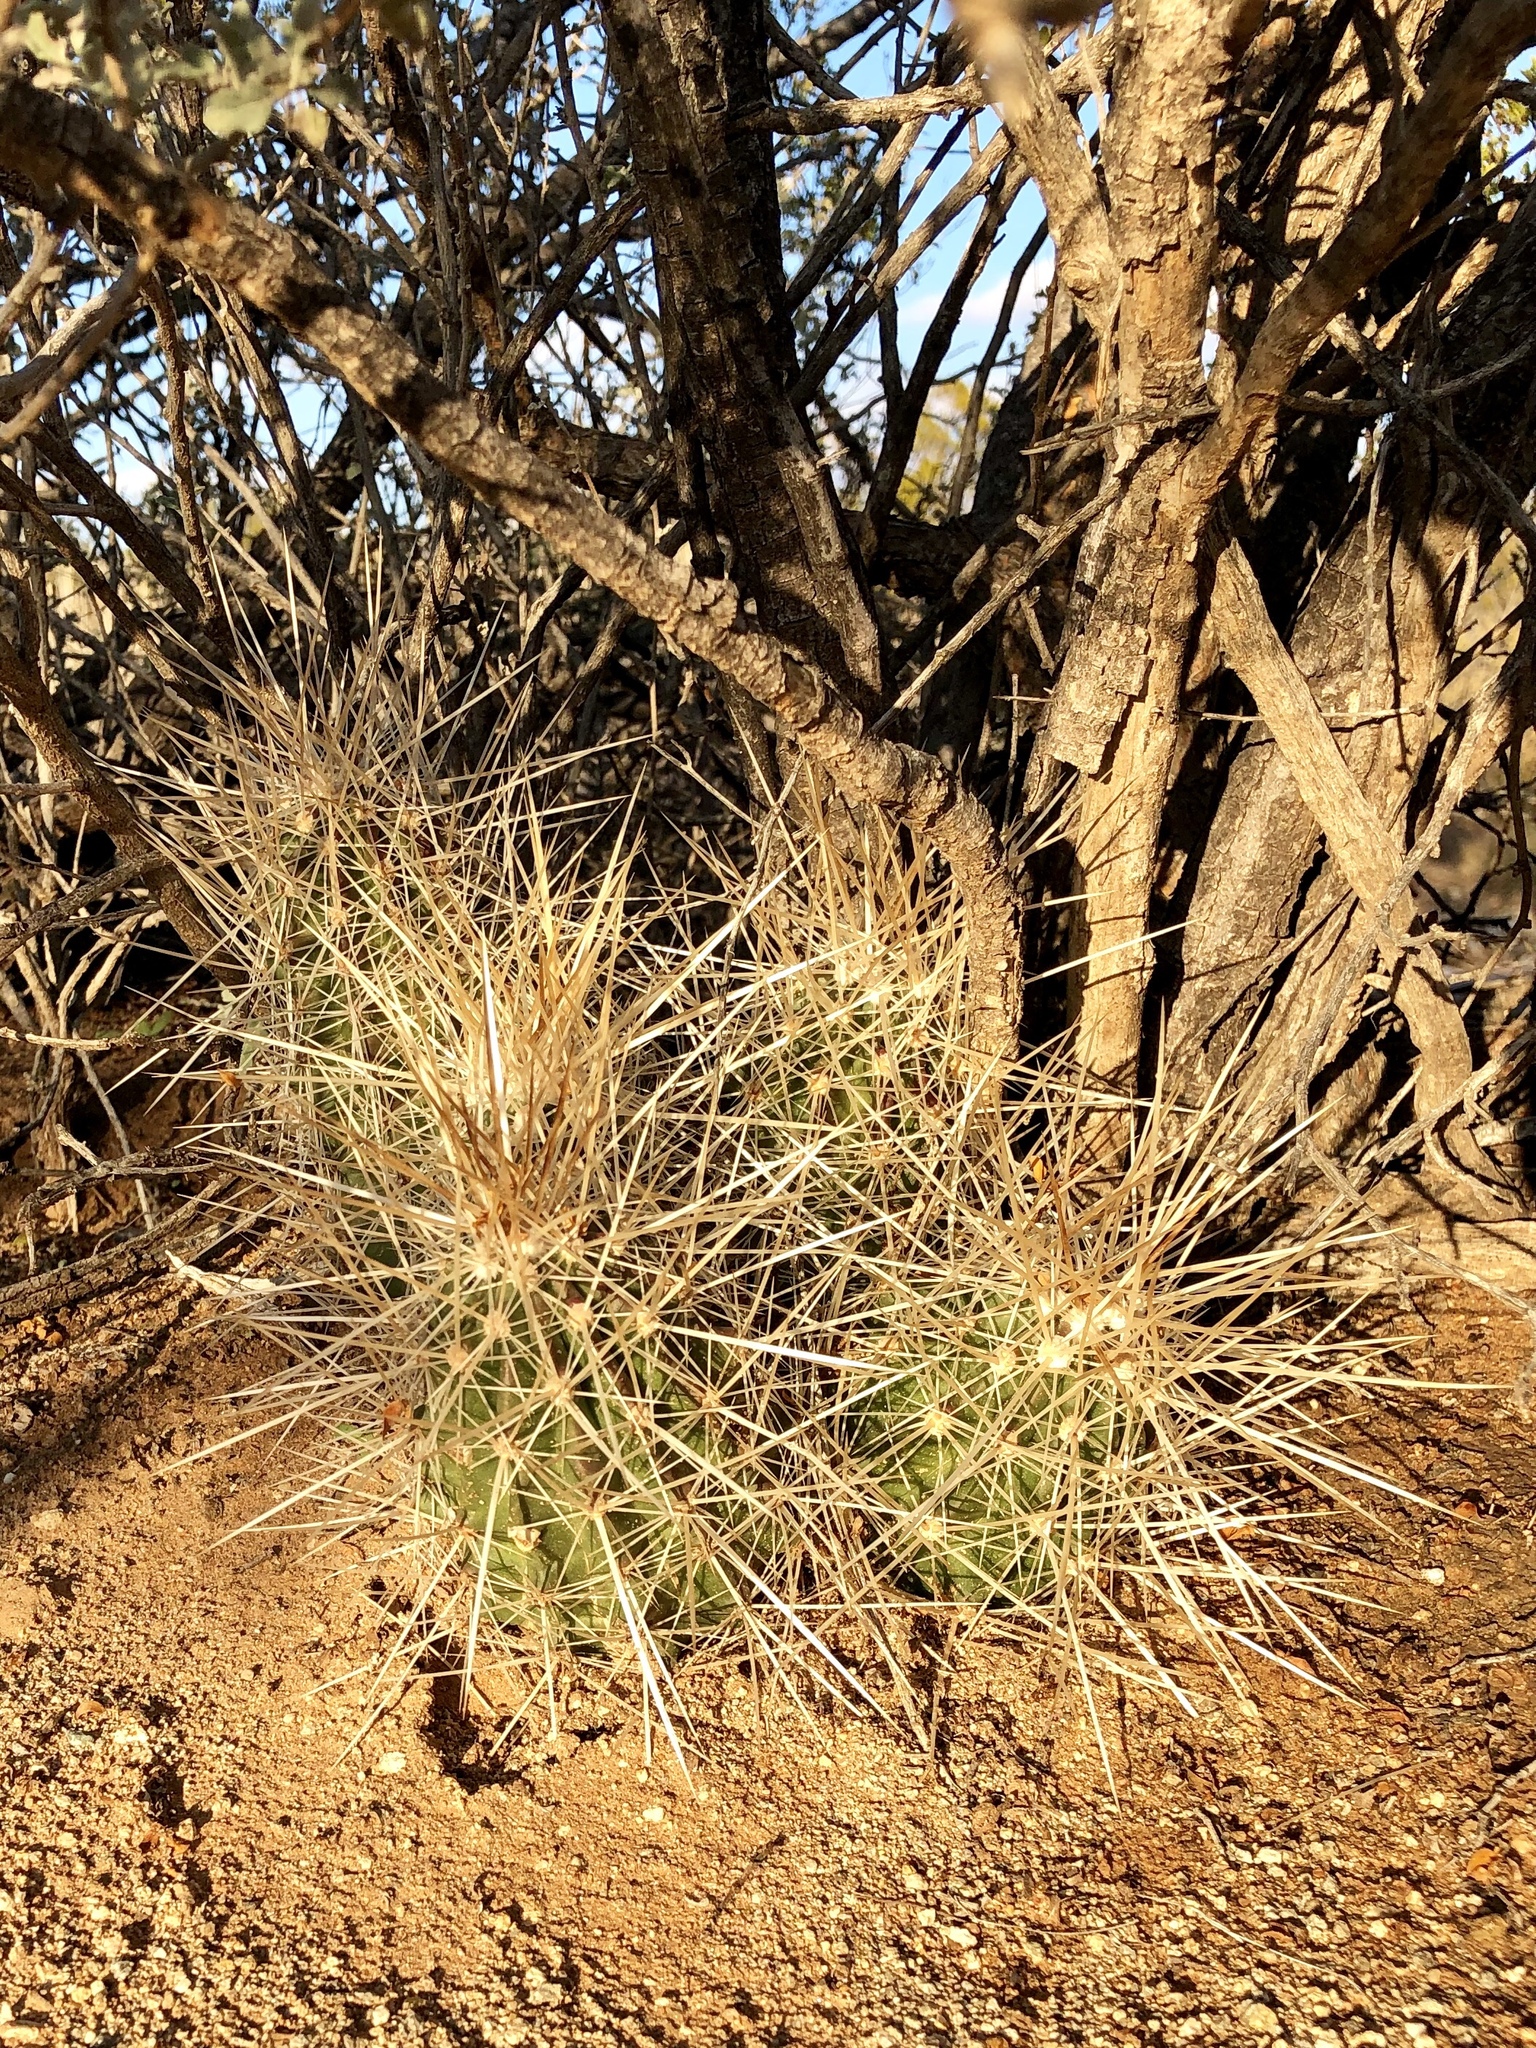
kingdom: Plantae
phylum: Tracheophyta
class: Magnoliopsida
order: Caryophyllales
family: Cactaceae
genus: Echinocereus
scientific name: Echinocereus stramineus
